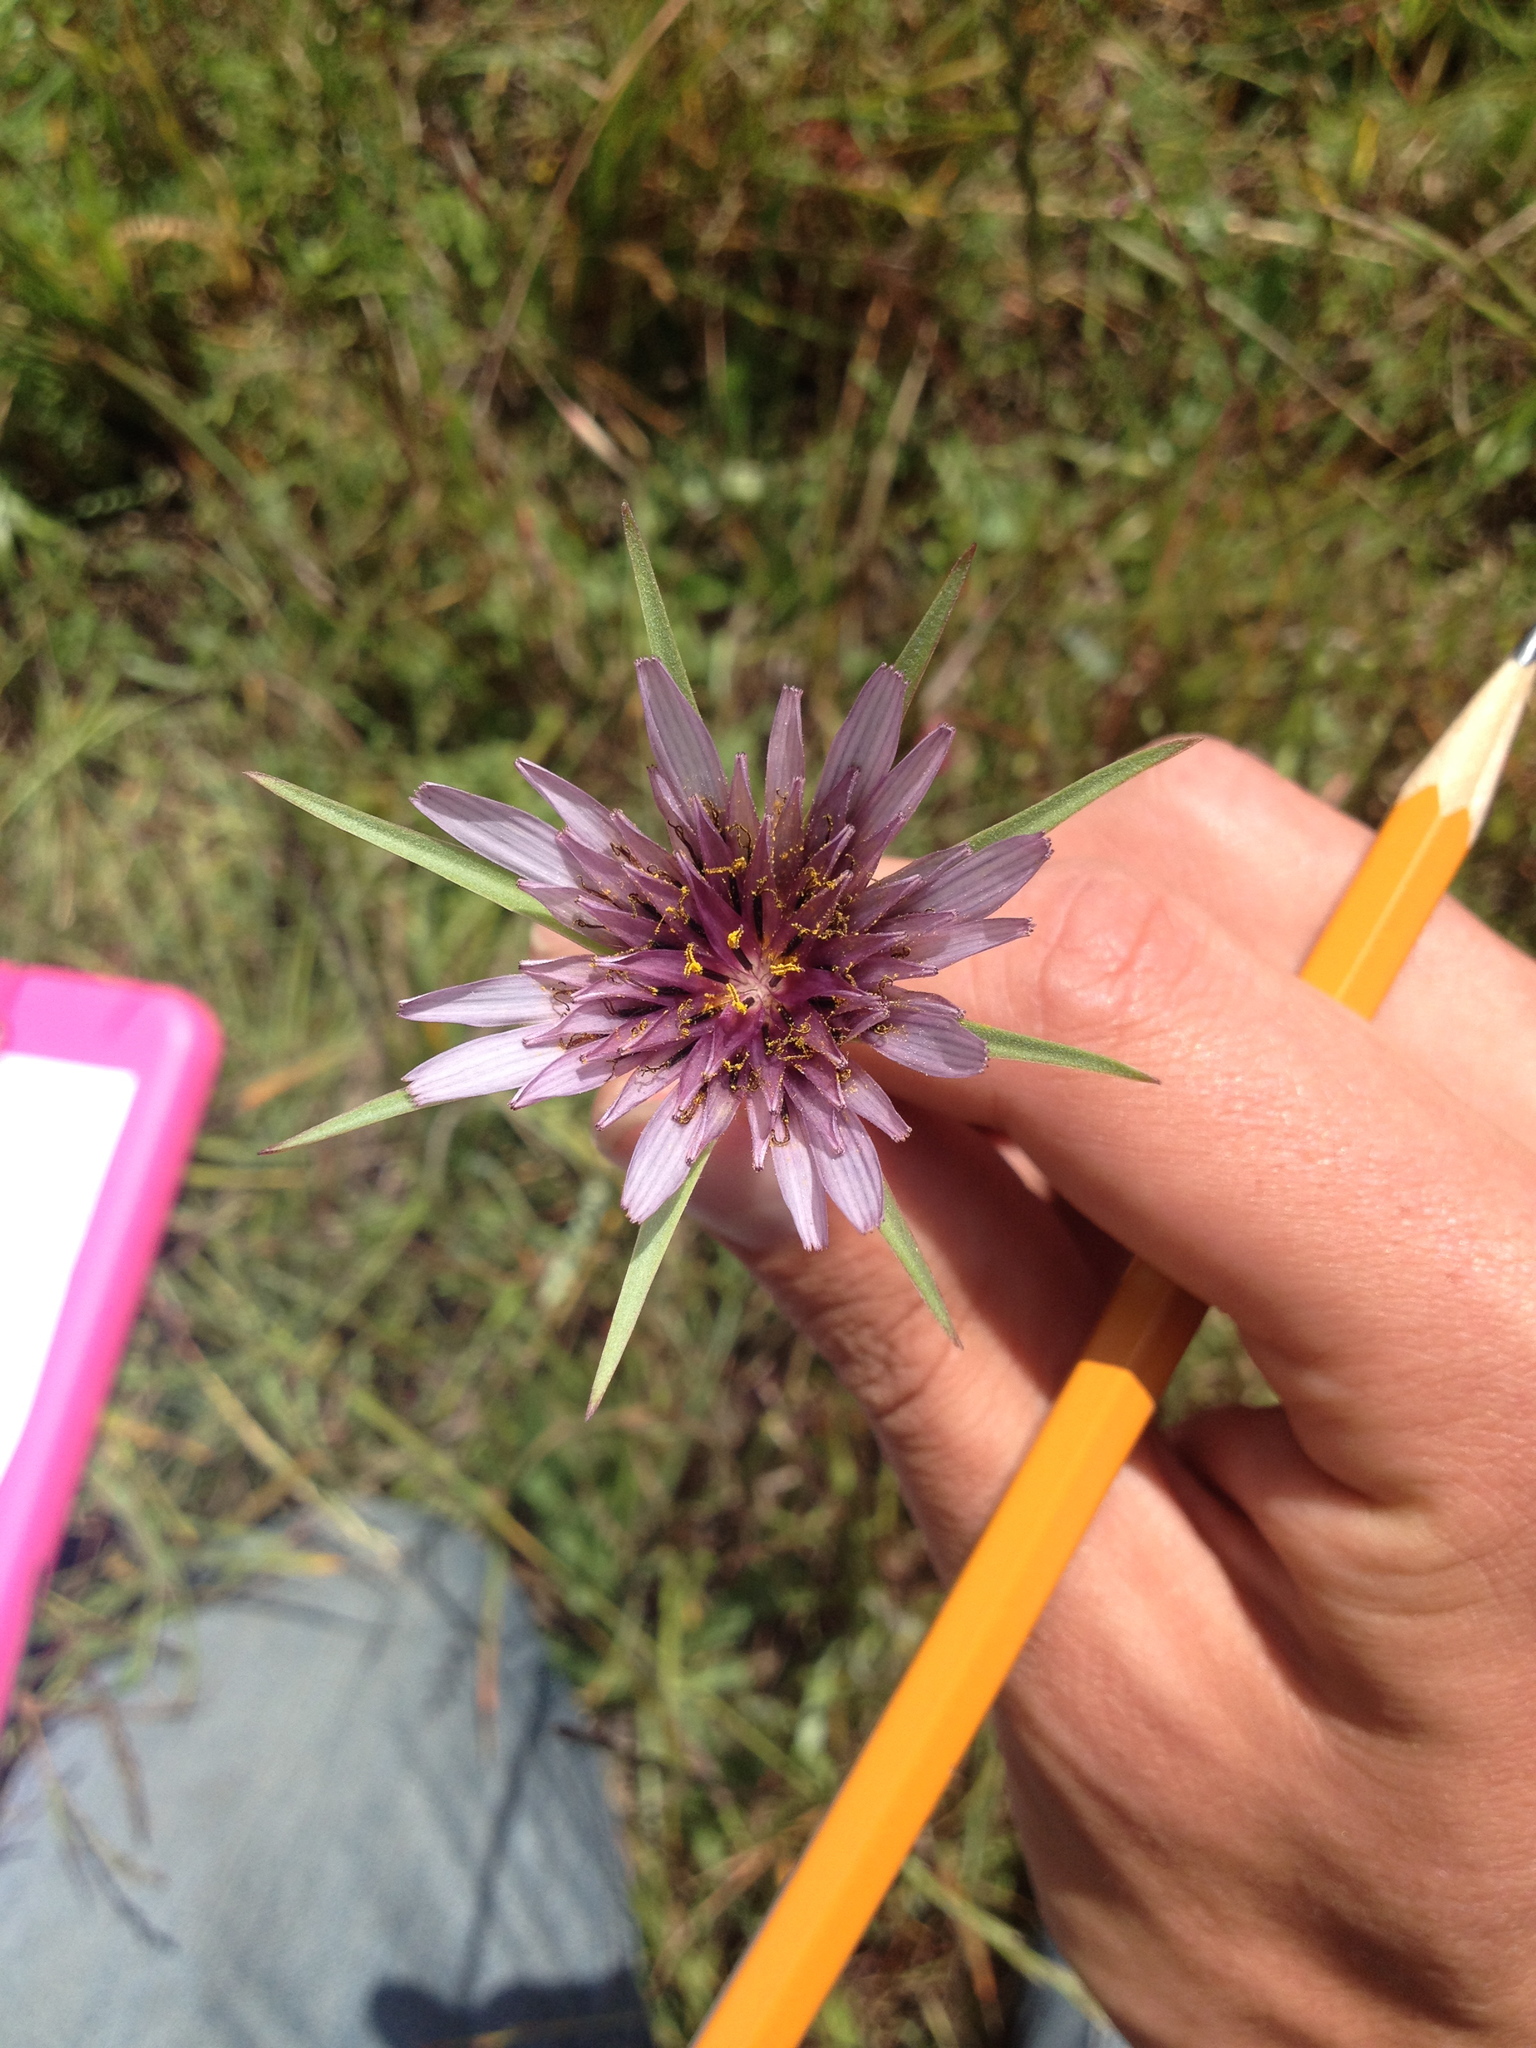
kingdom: Plantae
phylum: Tracheophyta
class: Magnoliopsida
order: Asterales
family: Asteraceae
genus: Tragopogon
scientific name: Tragopogon porrifolius
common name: Salsify
